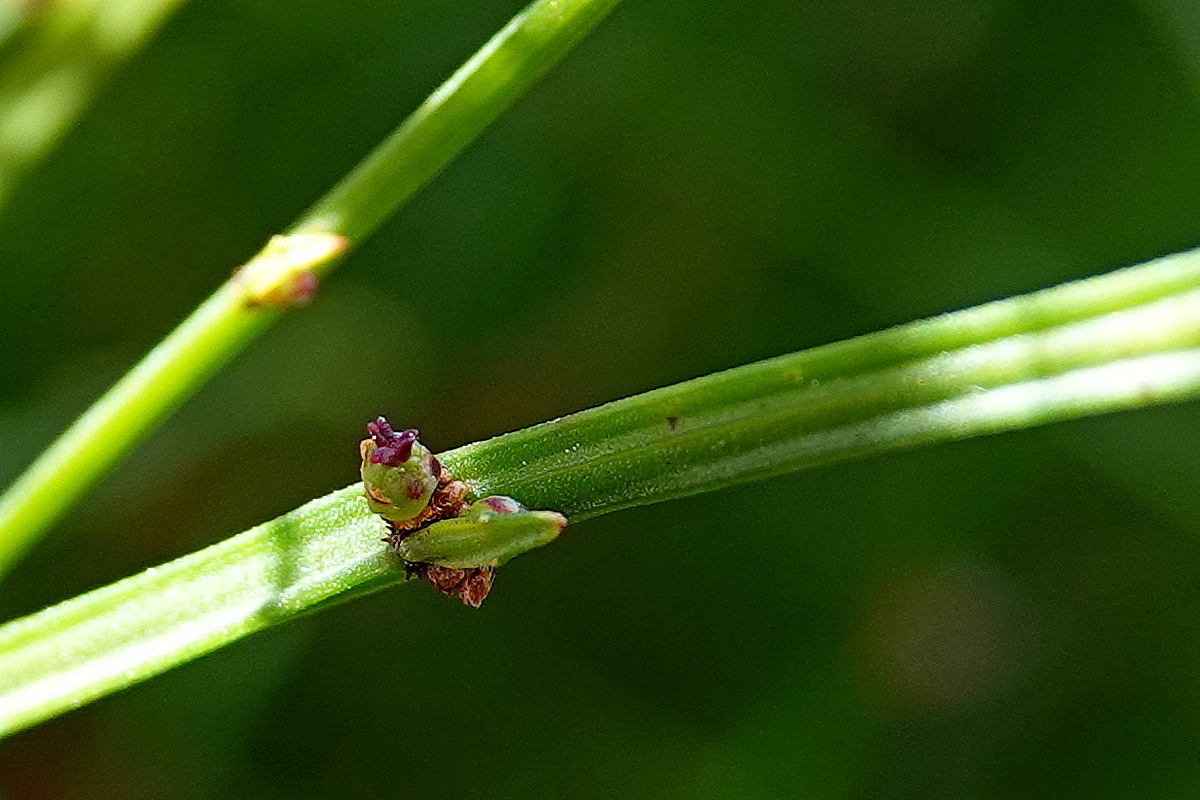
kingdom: Plantae
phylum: Tracheophyta
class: Magnoliopsida
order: Malpighiales
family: Euphorbiaceae
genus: Amperea
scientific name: Amperea xiphoclada
